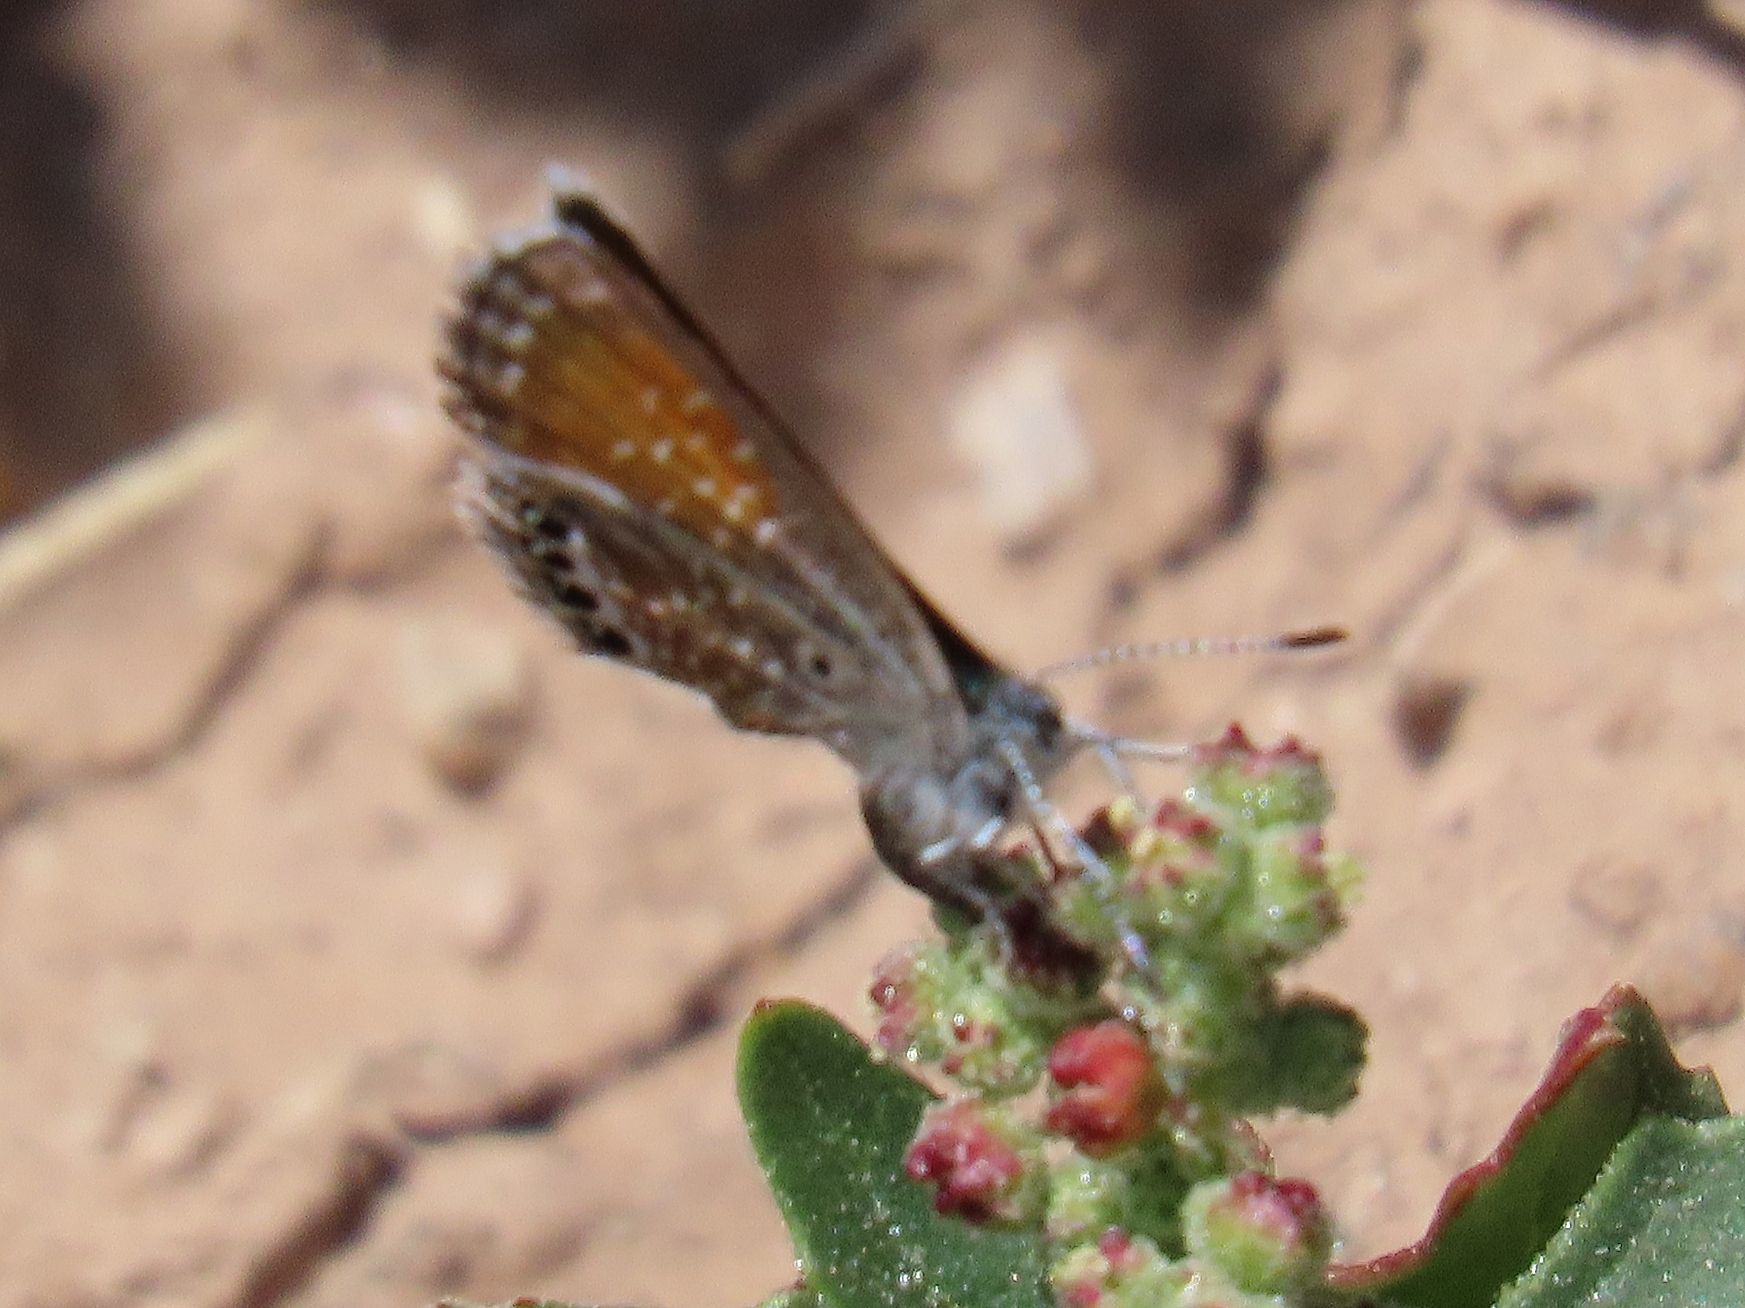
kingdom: Animalia
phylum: Arthropoda
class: Insecta
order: Lepidoptera
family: Lycaenidae
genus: Brephidium
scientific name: Brephidium exilis
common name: Pygmy blue
